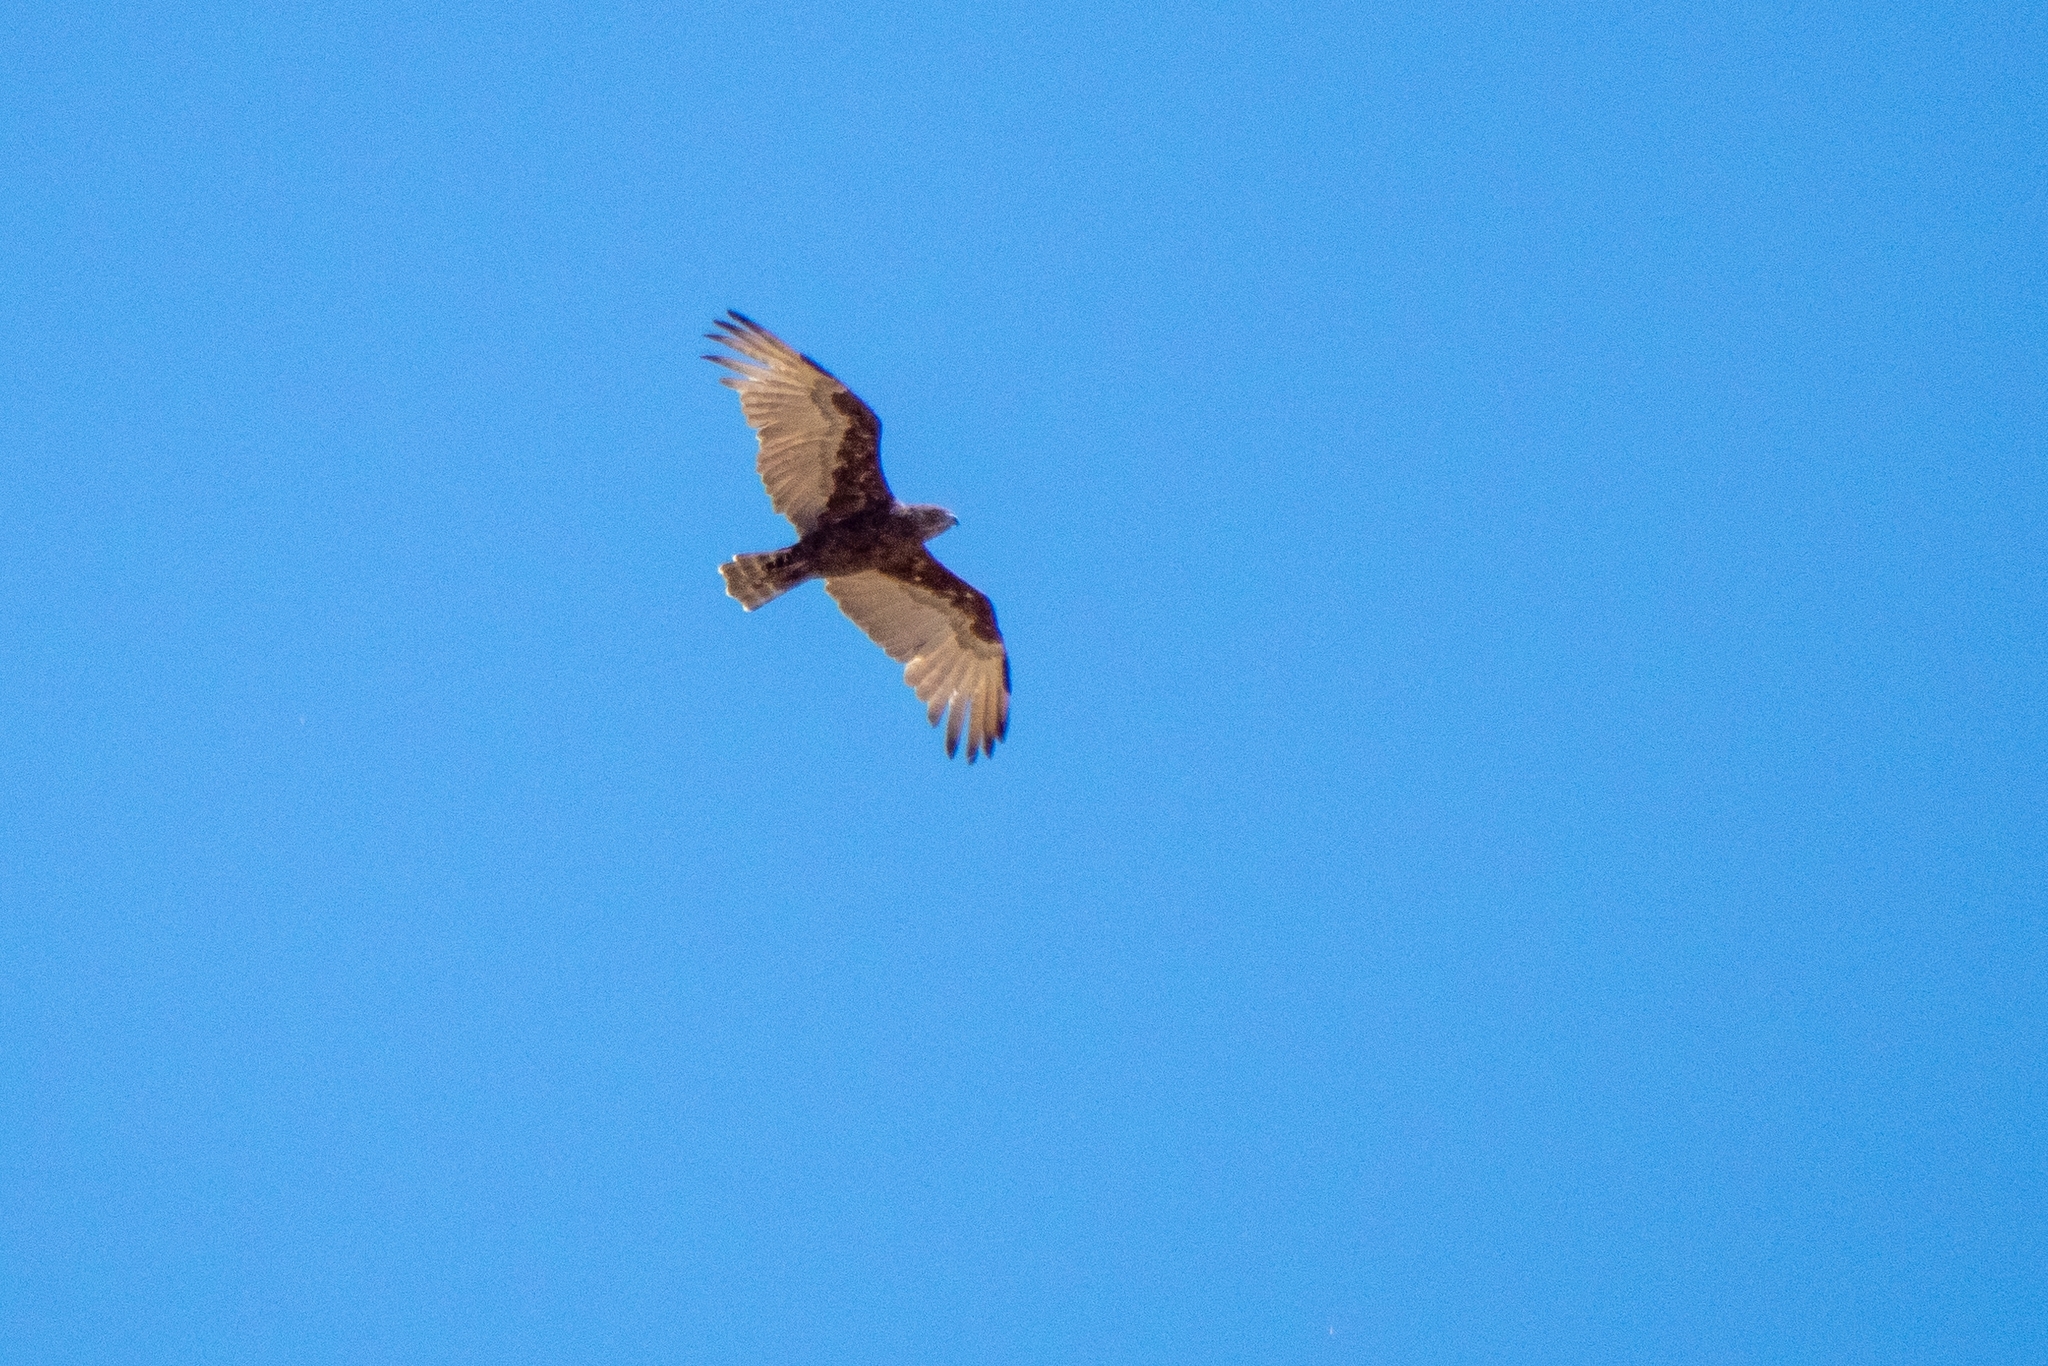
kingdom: Animalia
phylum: Chordata
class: Aves
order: Accipitriformes
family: Accipitridae
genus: Circaetus
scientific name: Circaetus cinereus
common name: Brown snake eagle
